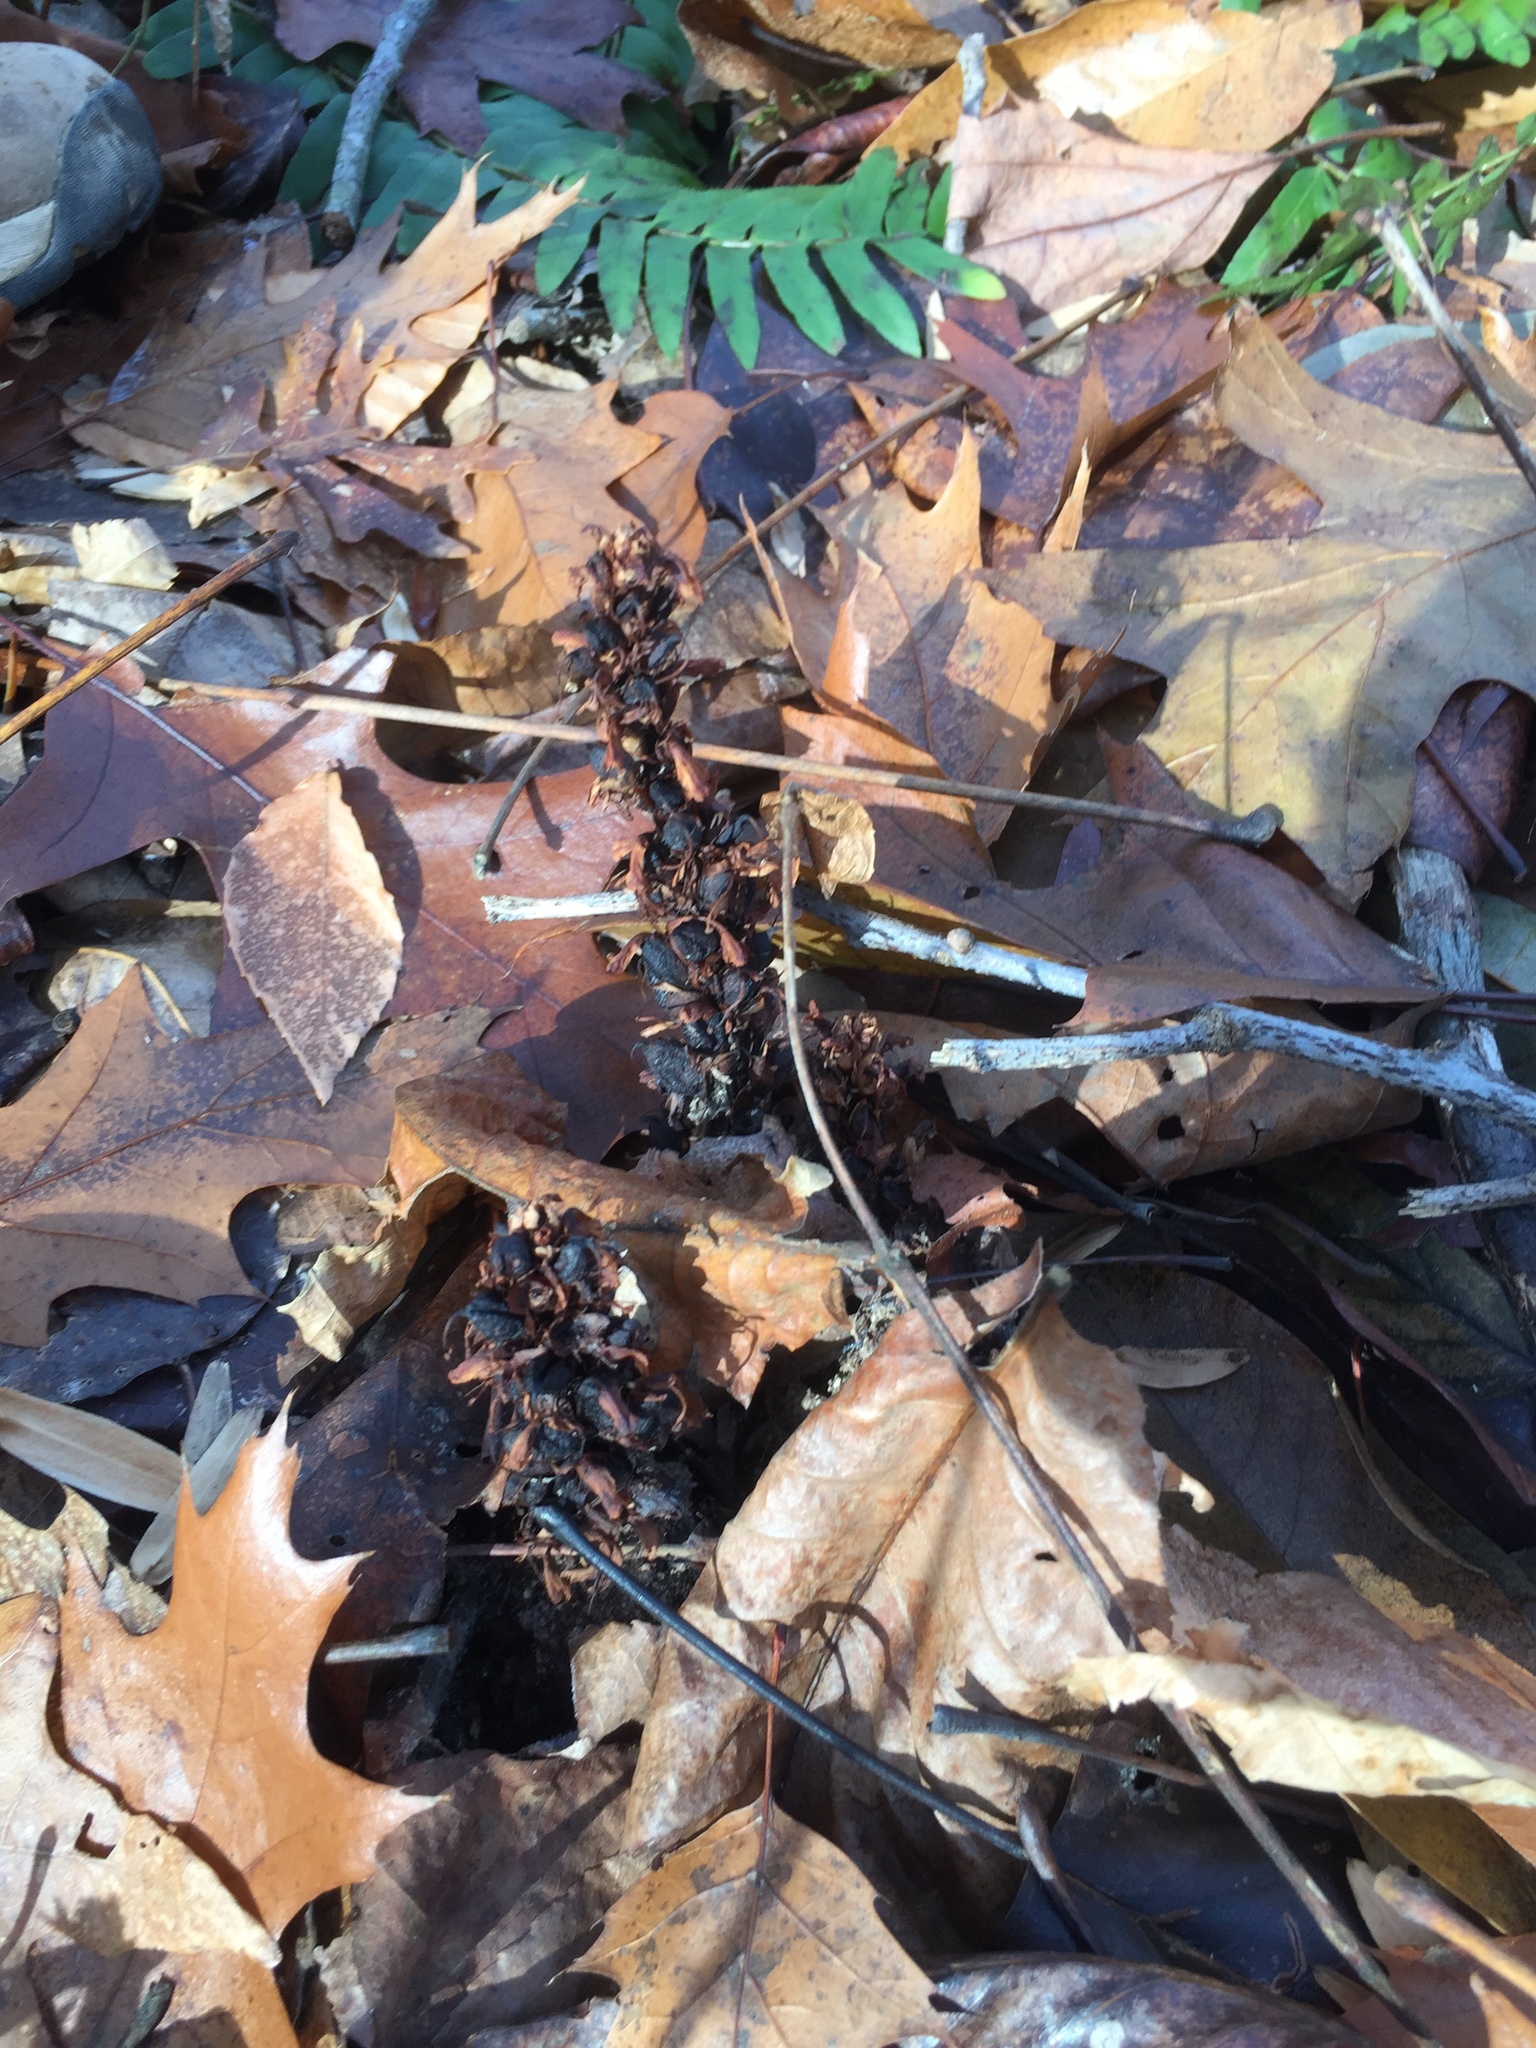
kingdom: Plantae
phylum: Tracheophyta
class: Magnoliopsida
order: Lamiales
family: Orobanchaceae
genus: Conopholis
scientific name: Conopholis americana
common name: American cancer-root
